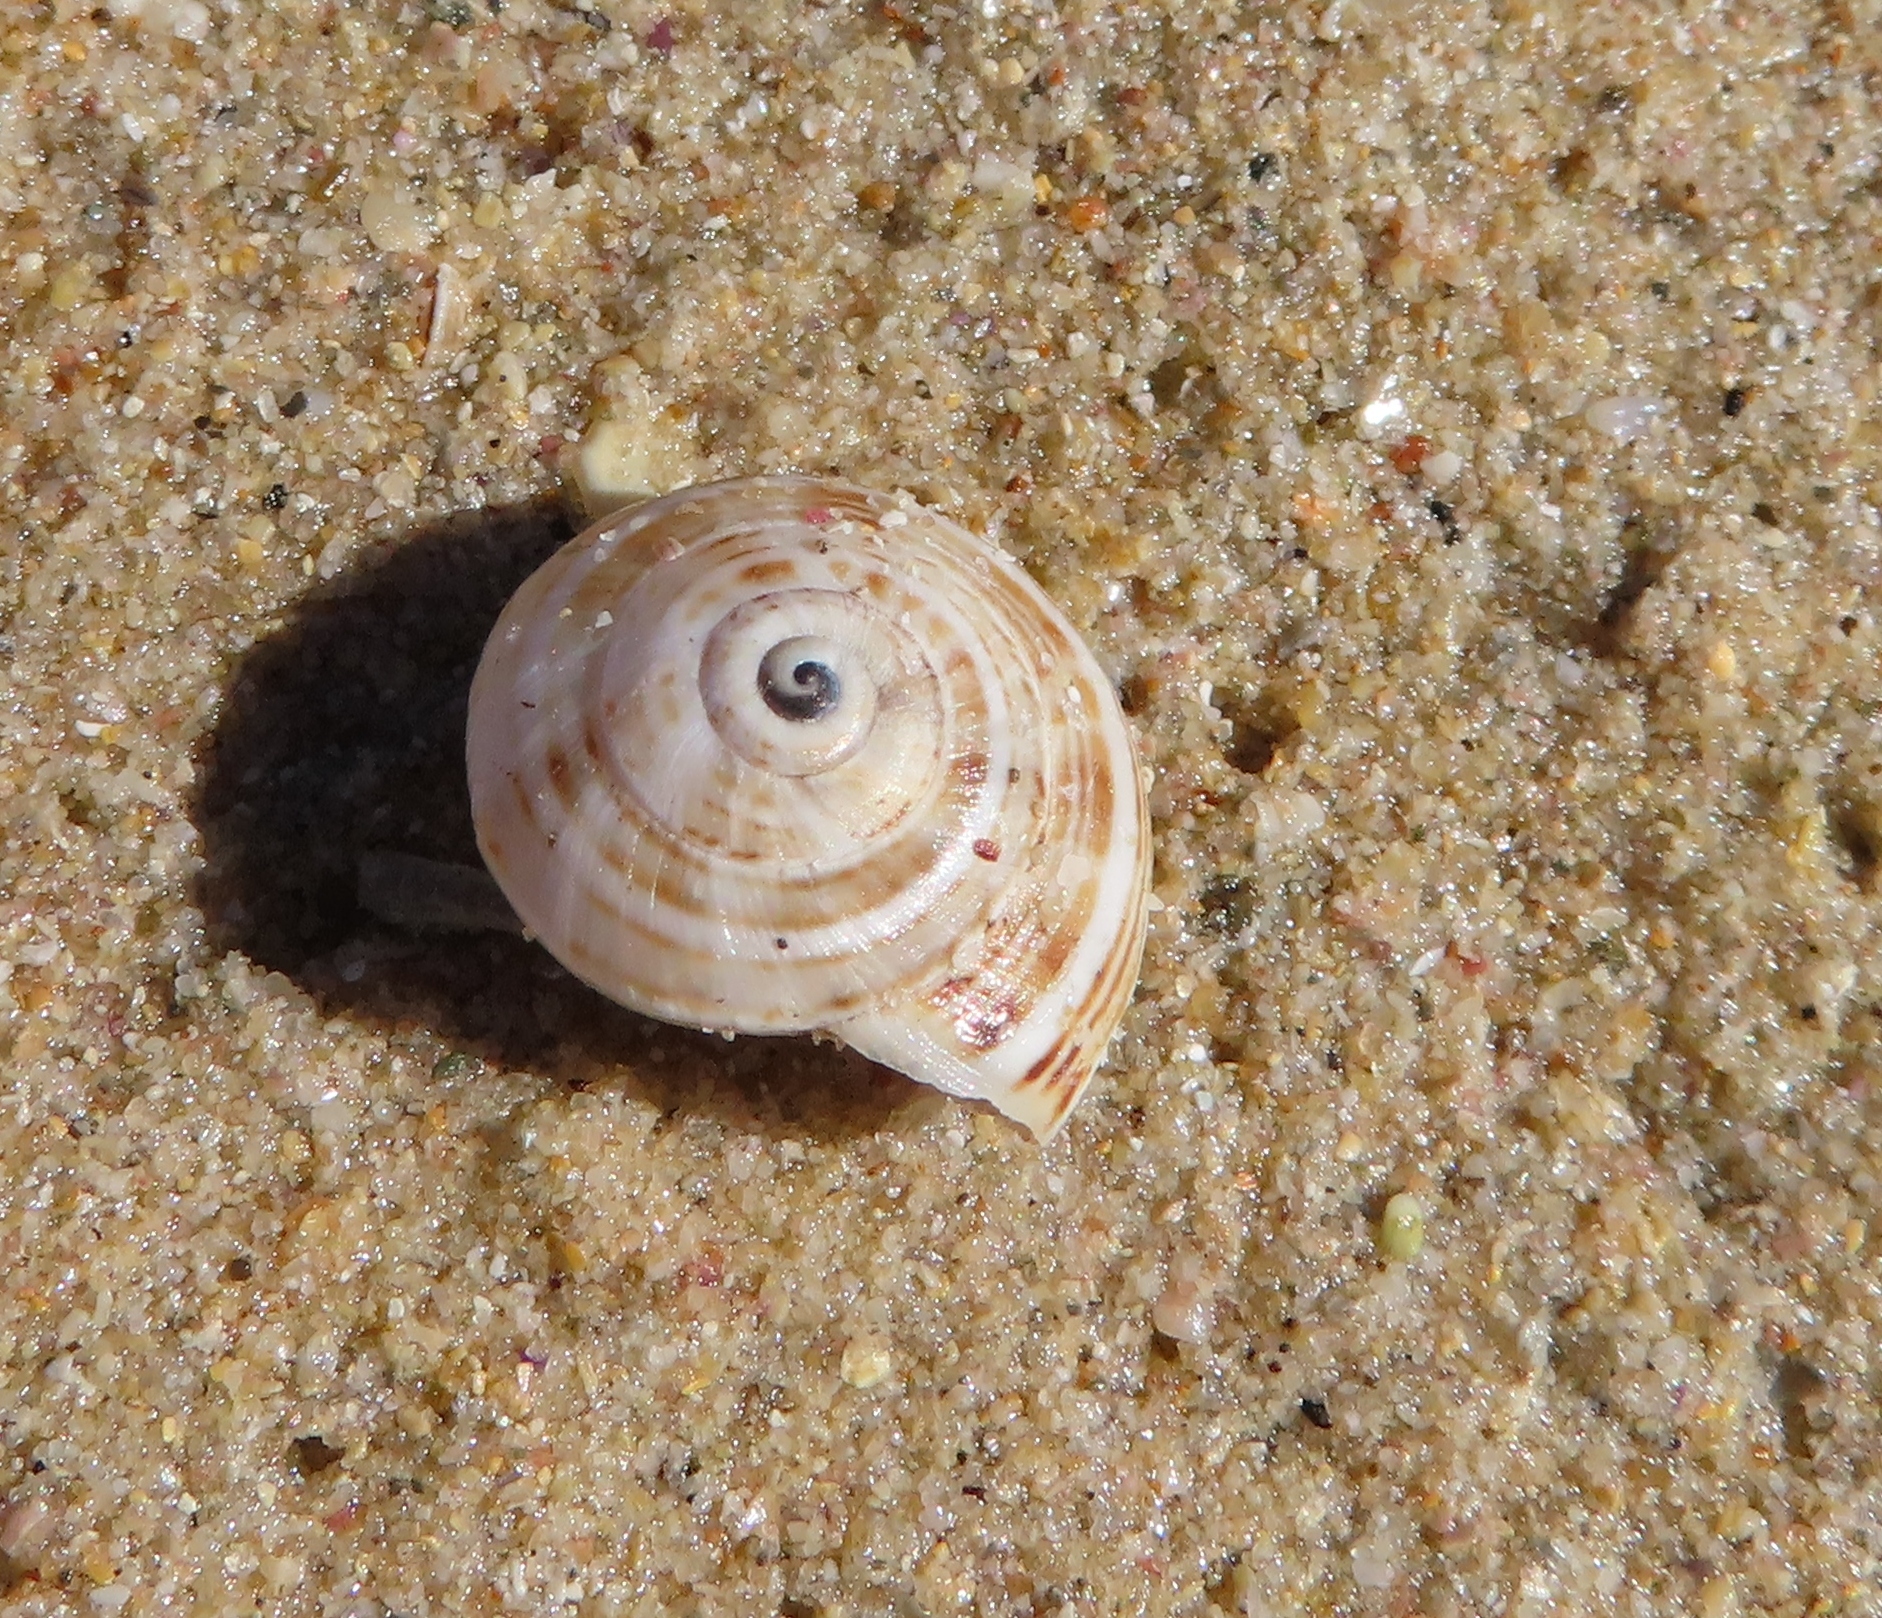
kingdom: Animalia
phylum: Mollusca
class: Gastropoda
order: Stylommatophora
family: Helicidae
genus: Theba
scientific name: Theba pisana
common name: White snail
